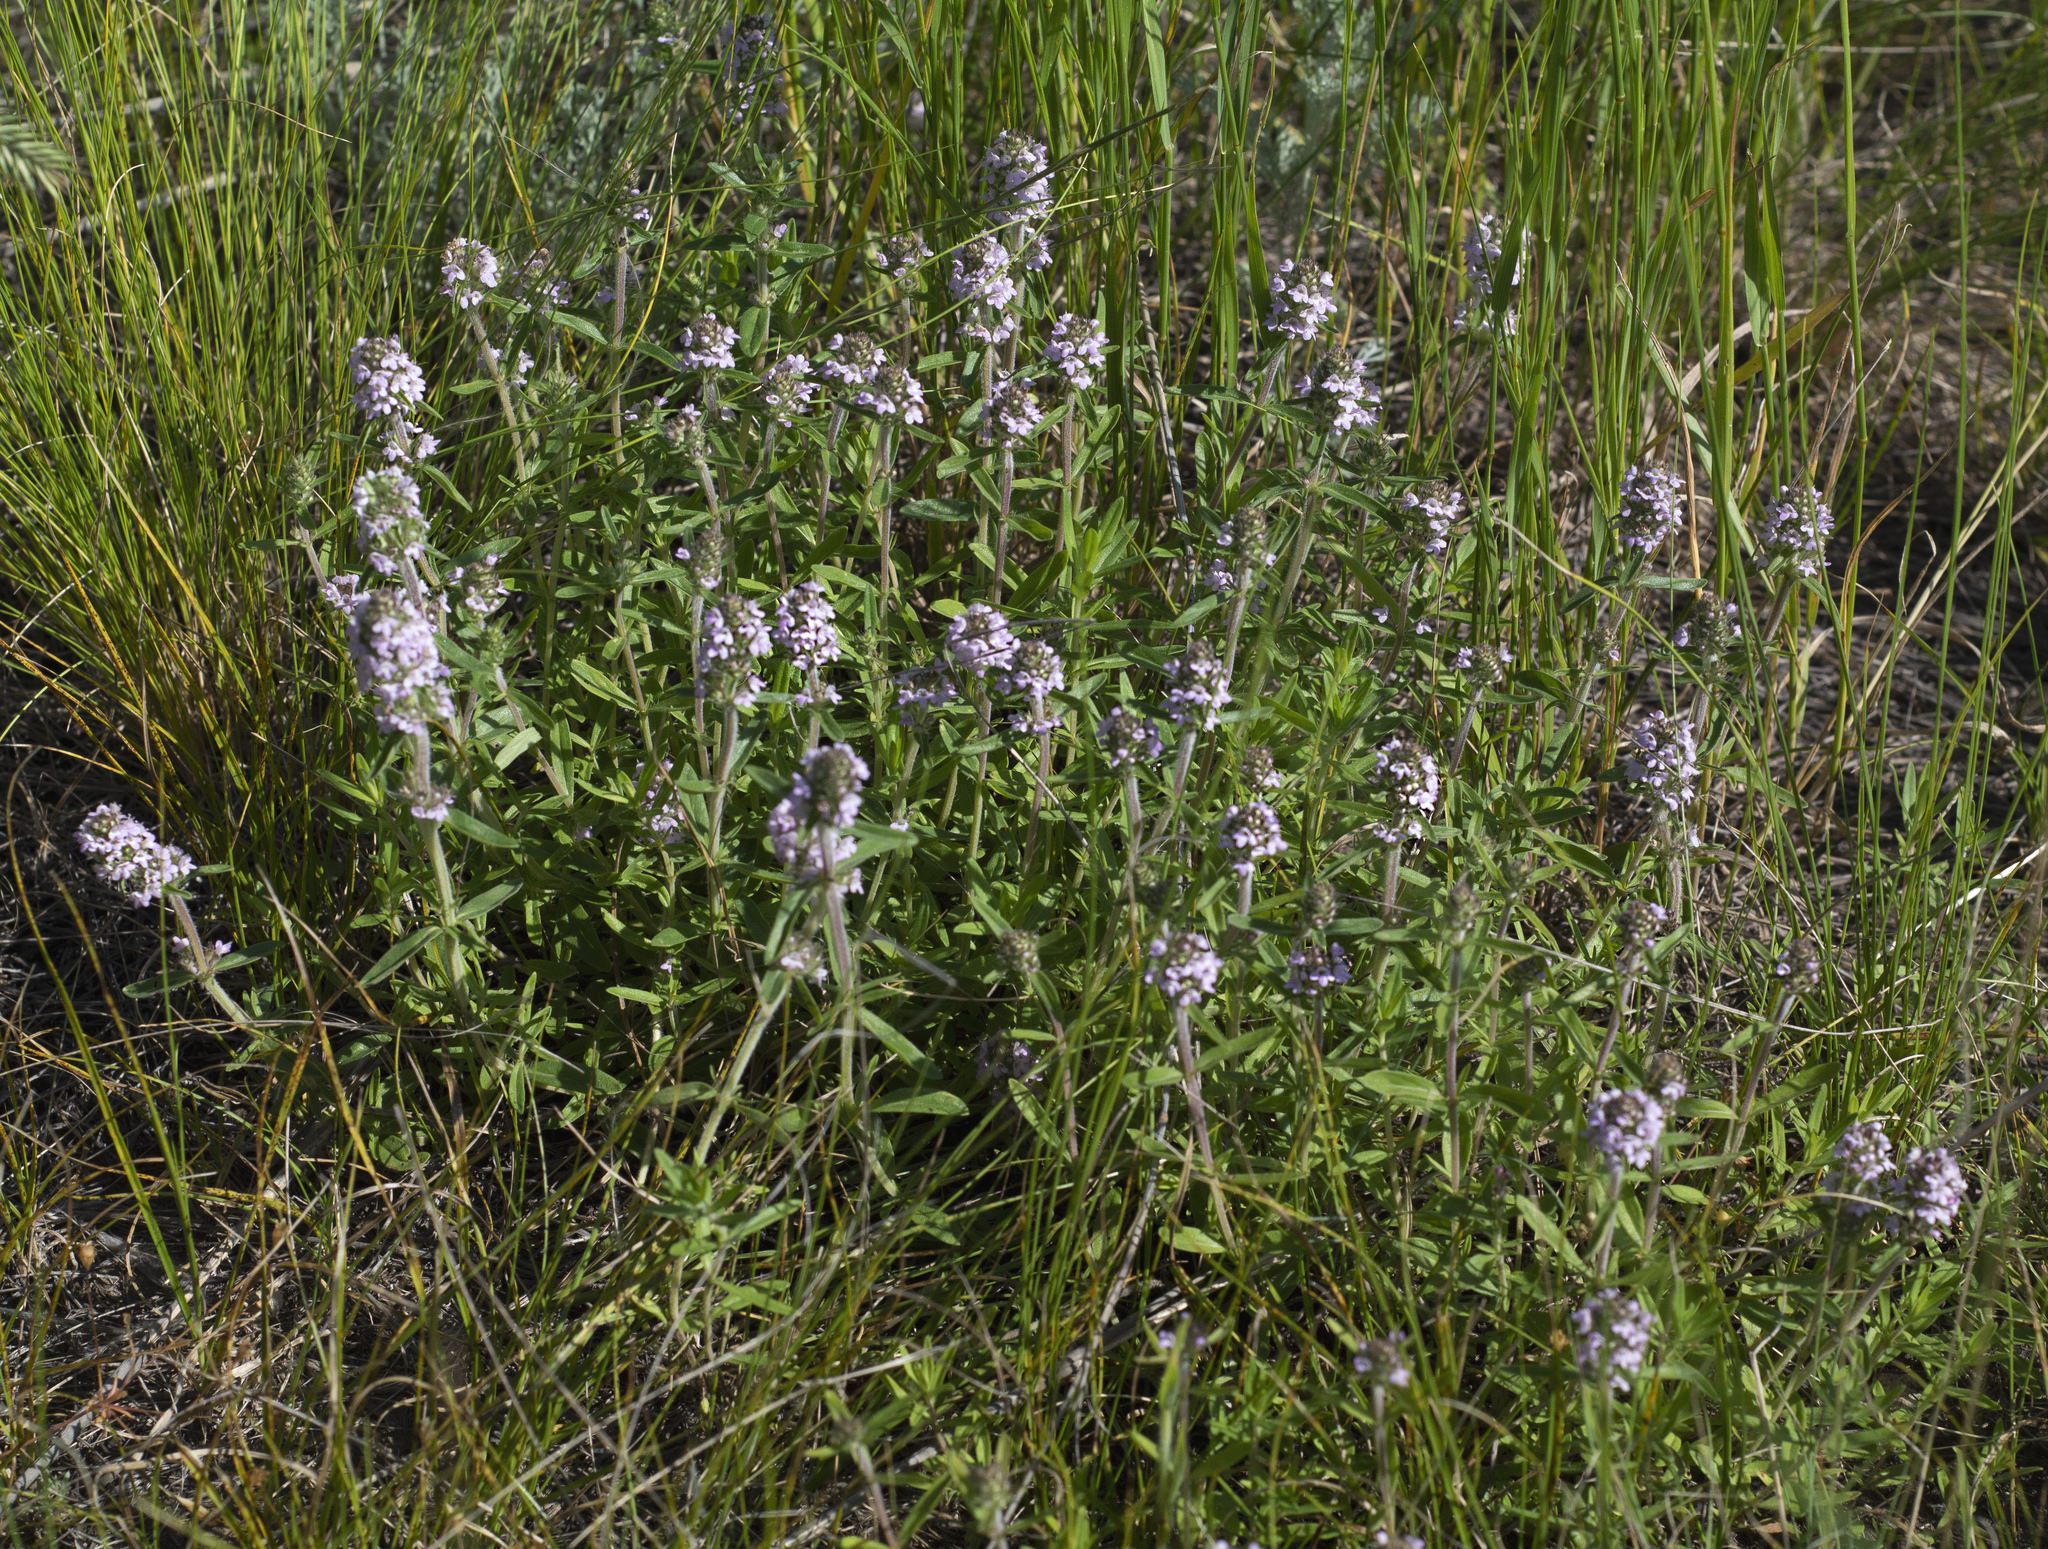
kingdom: Plantae
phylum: Tracheophyta
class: Magnoliopsida
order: Lamiales
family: Lamiaceae
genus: Thymus
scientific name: Thymus pannonicus
